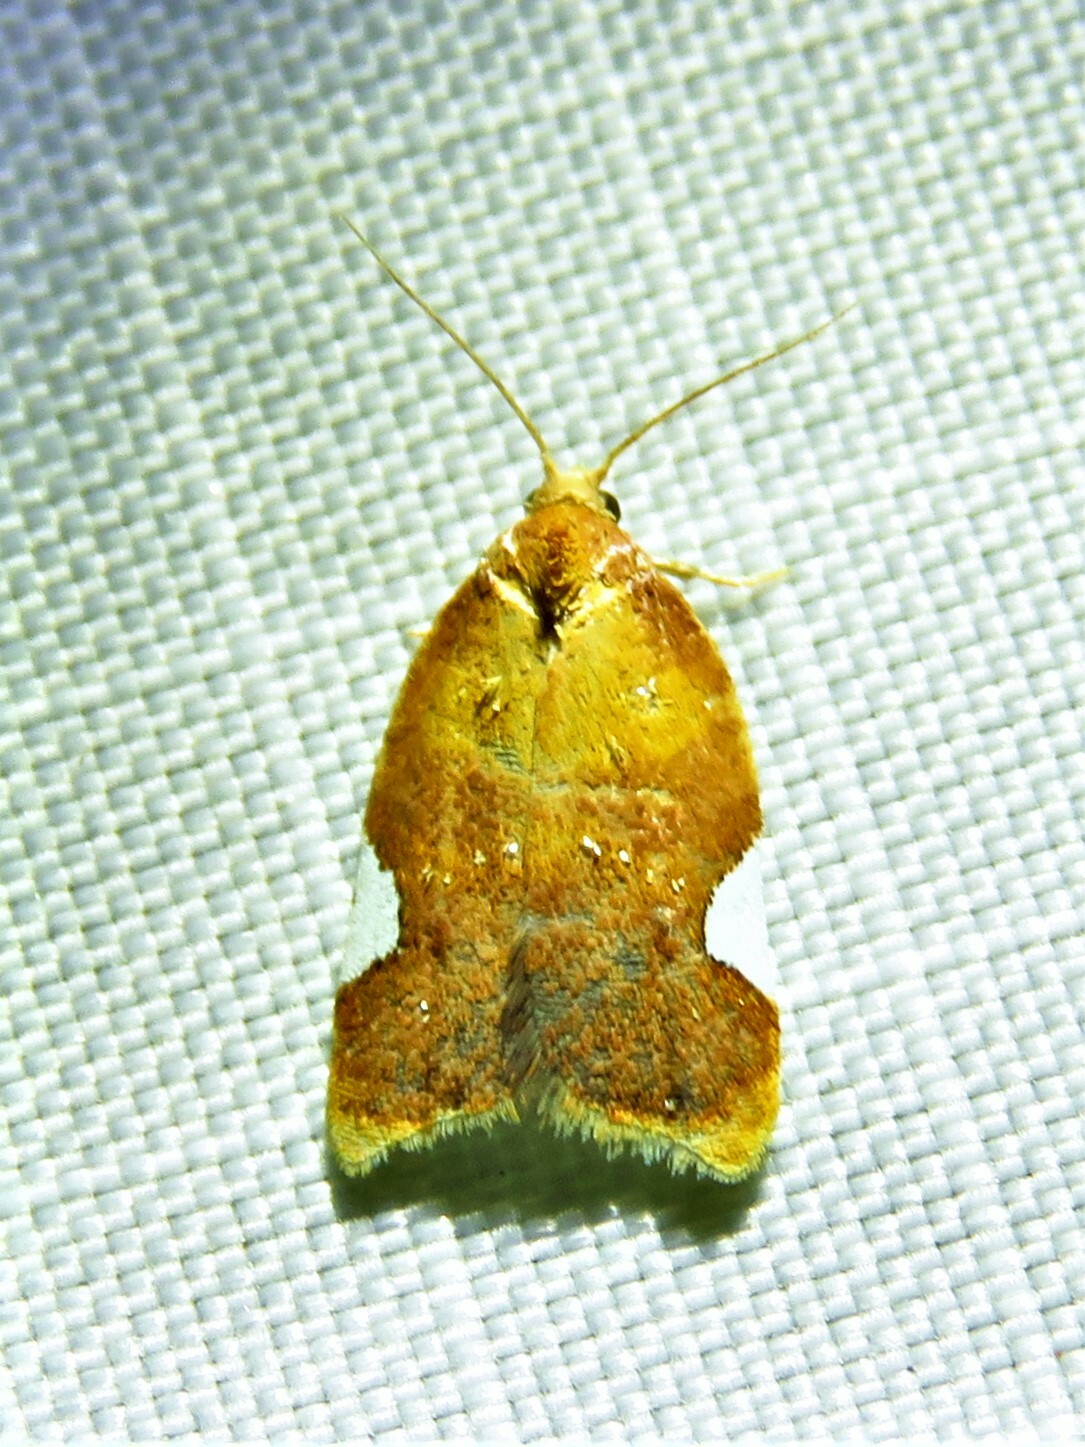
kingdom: Animalia
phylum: Arthropoda
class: Insecta
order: Lepidoptera
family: Tortricidae
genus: Acleris
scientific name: Acleris holmiana
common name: Golden leafroller moth
